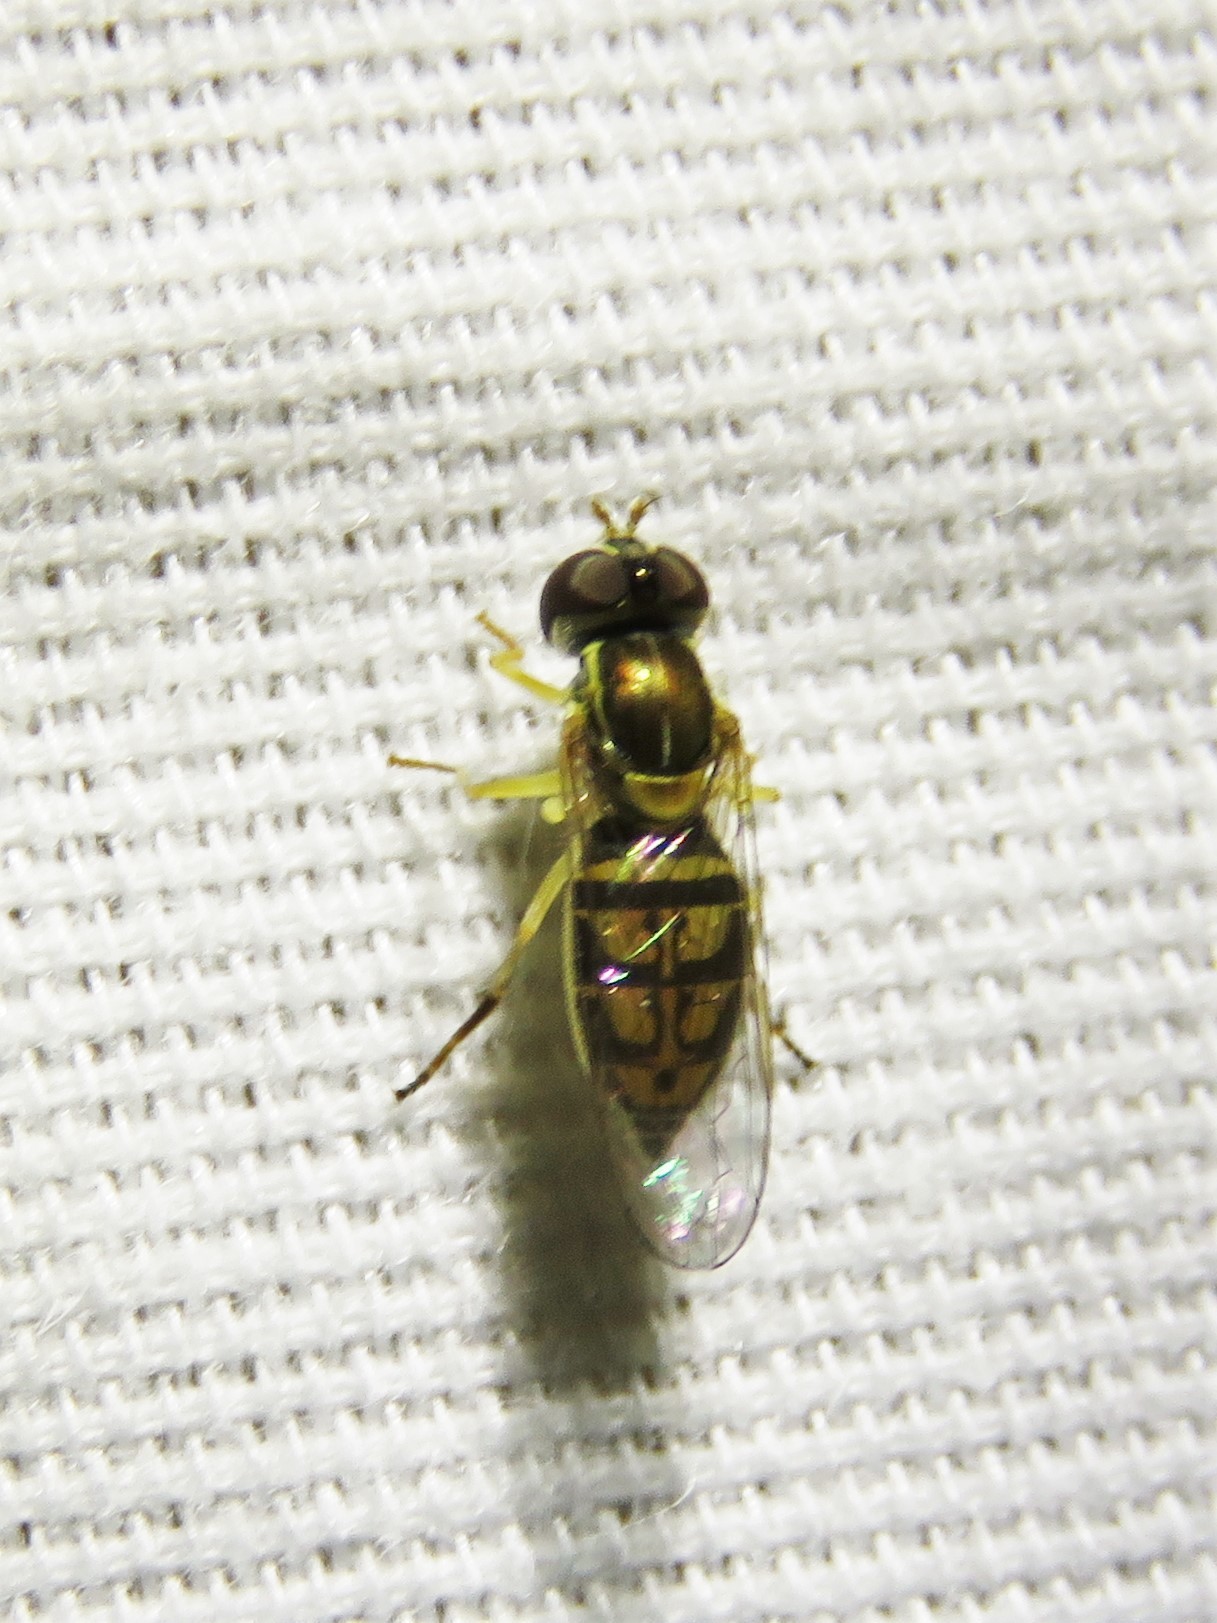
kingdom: Animalia
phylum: Arthropoda
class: Insecta
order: Diptera
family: Syrphidae
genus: Toxomerus
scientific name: Toxomerus marginatus
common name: Syrphid fly
